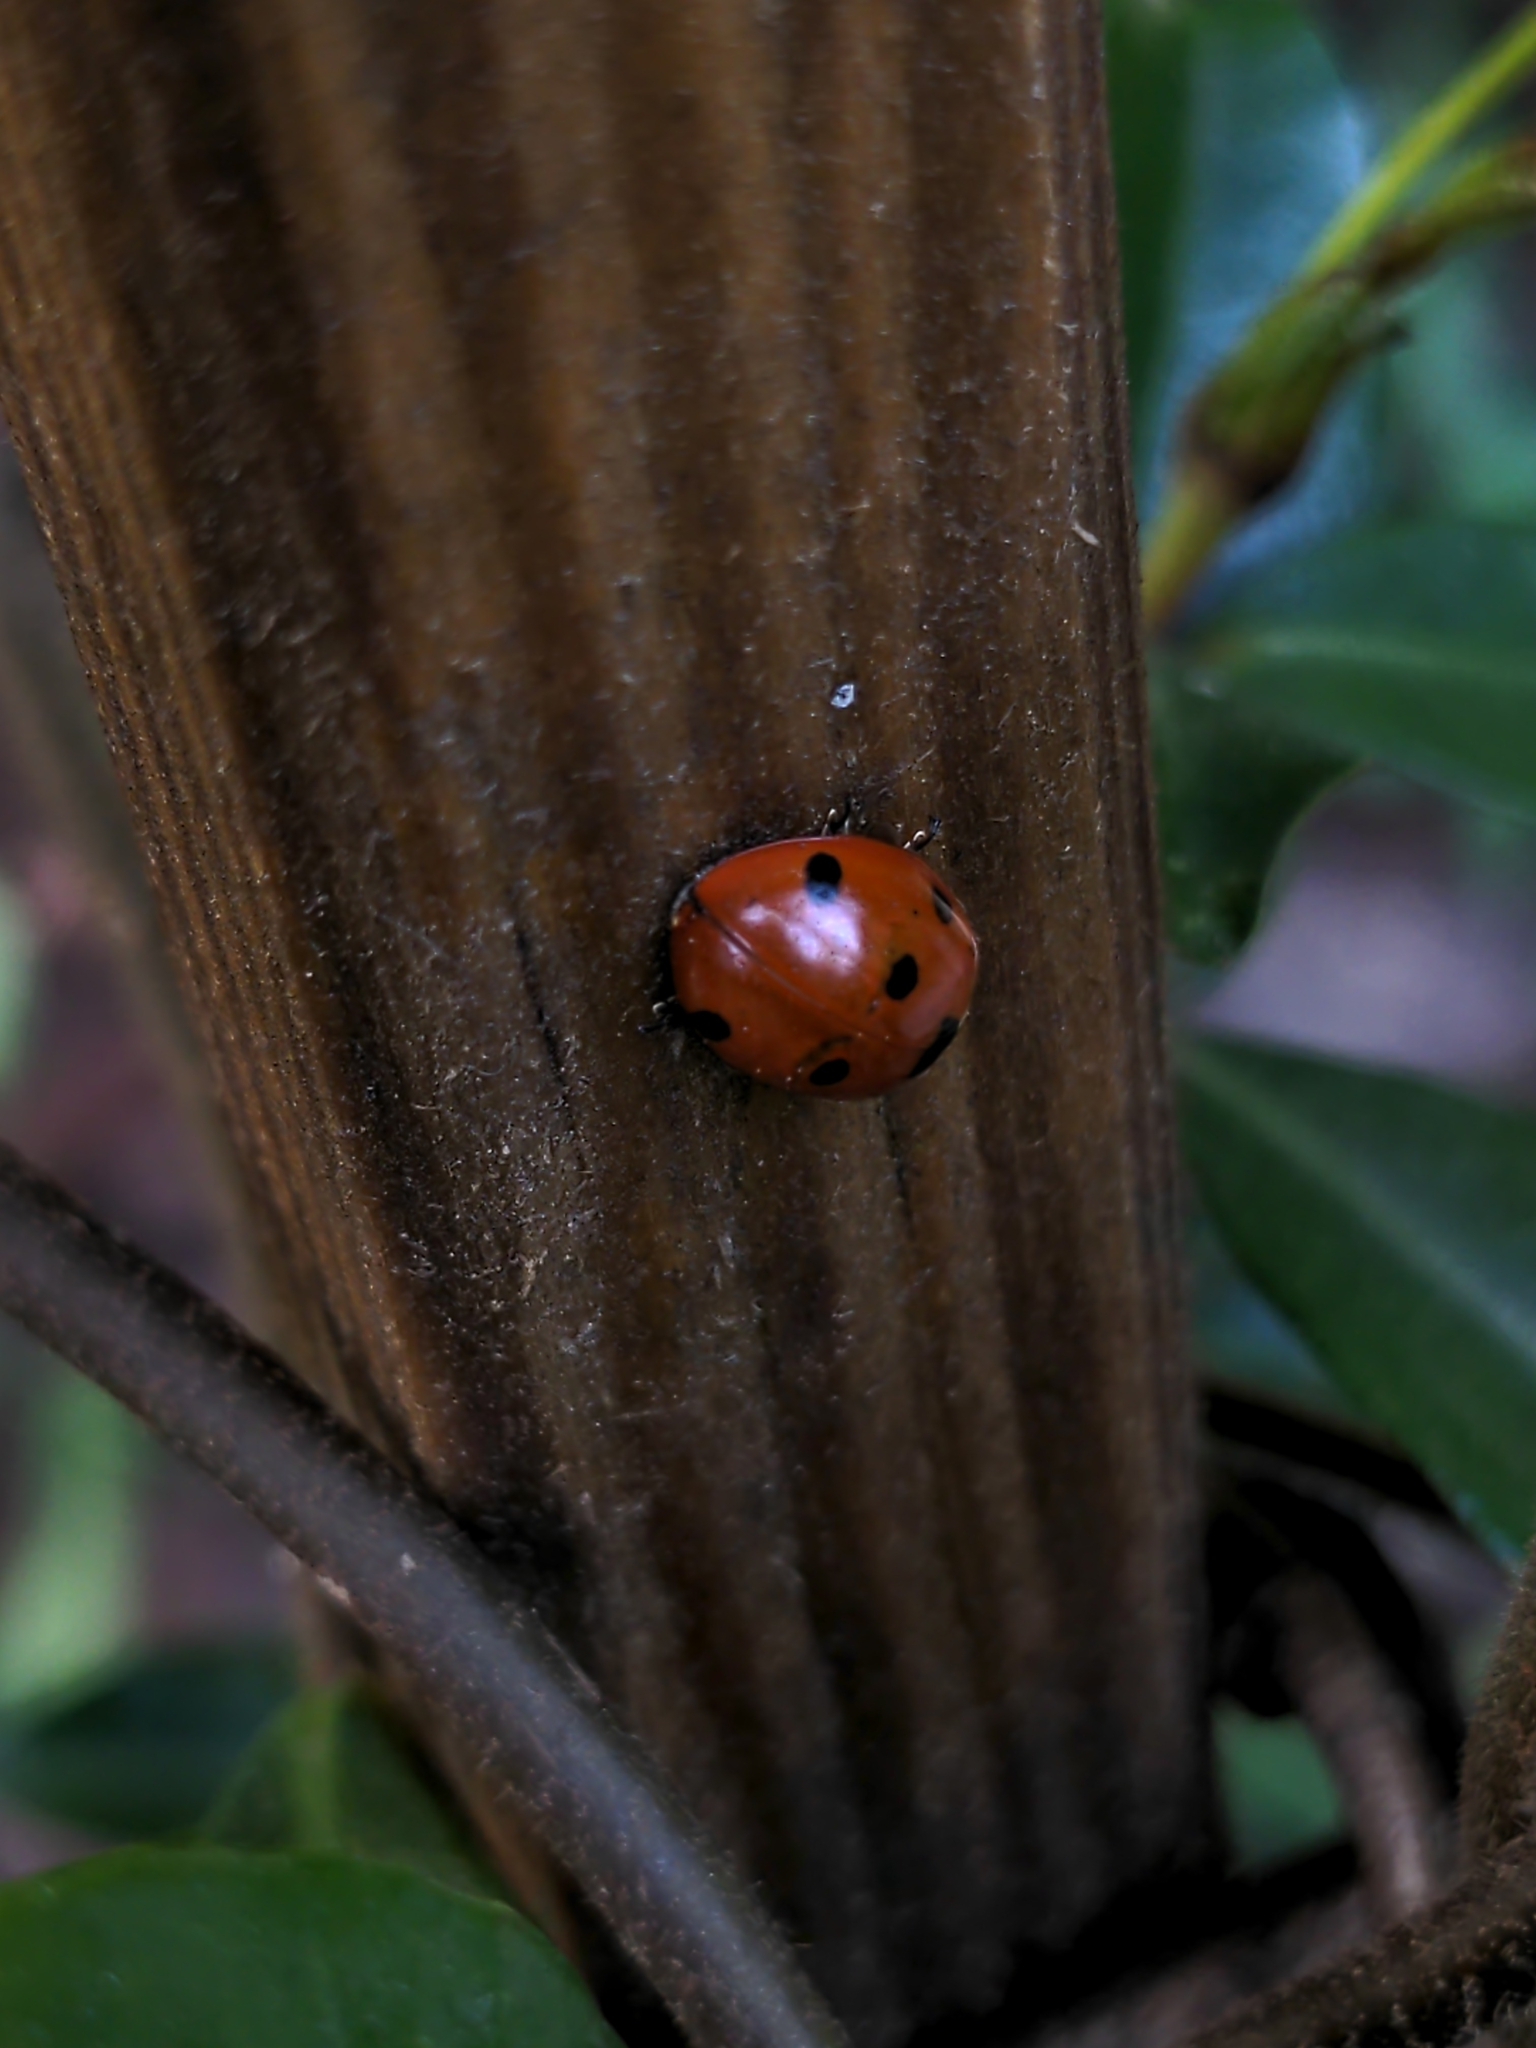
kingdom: Animalia
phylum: Arthropoda
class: Insecta
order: Coleoptera
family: Coccinellidae
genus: Coccinella
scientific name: Coccinella septempunctata
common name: Sevenspotted lady beetle
